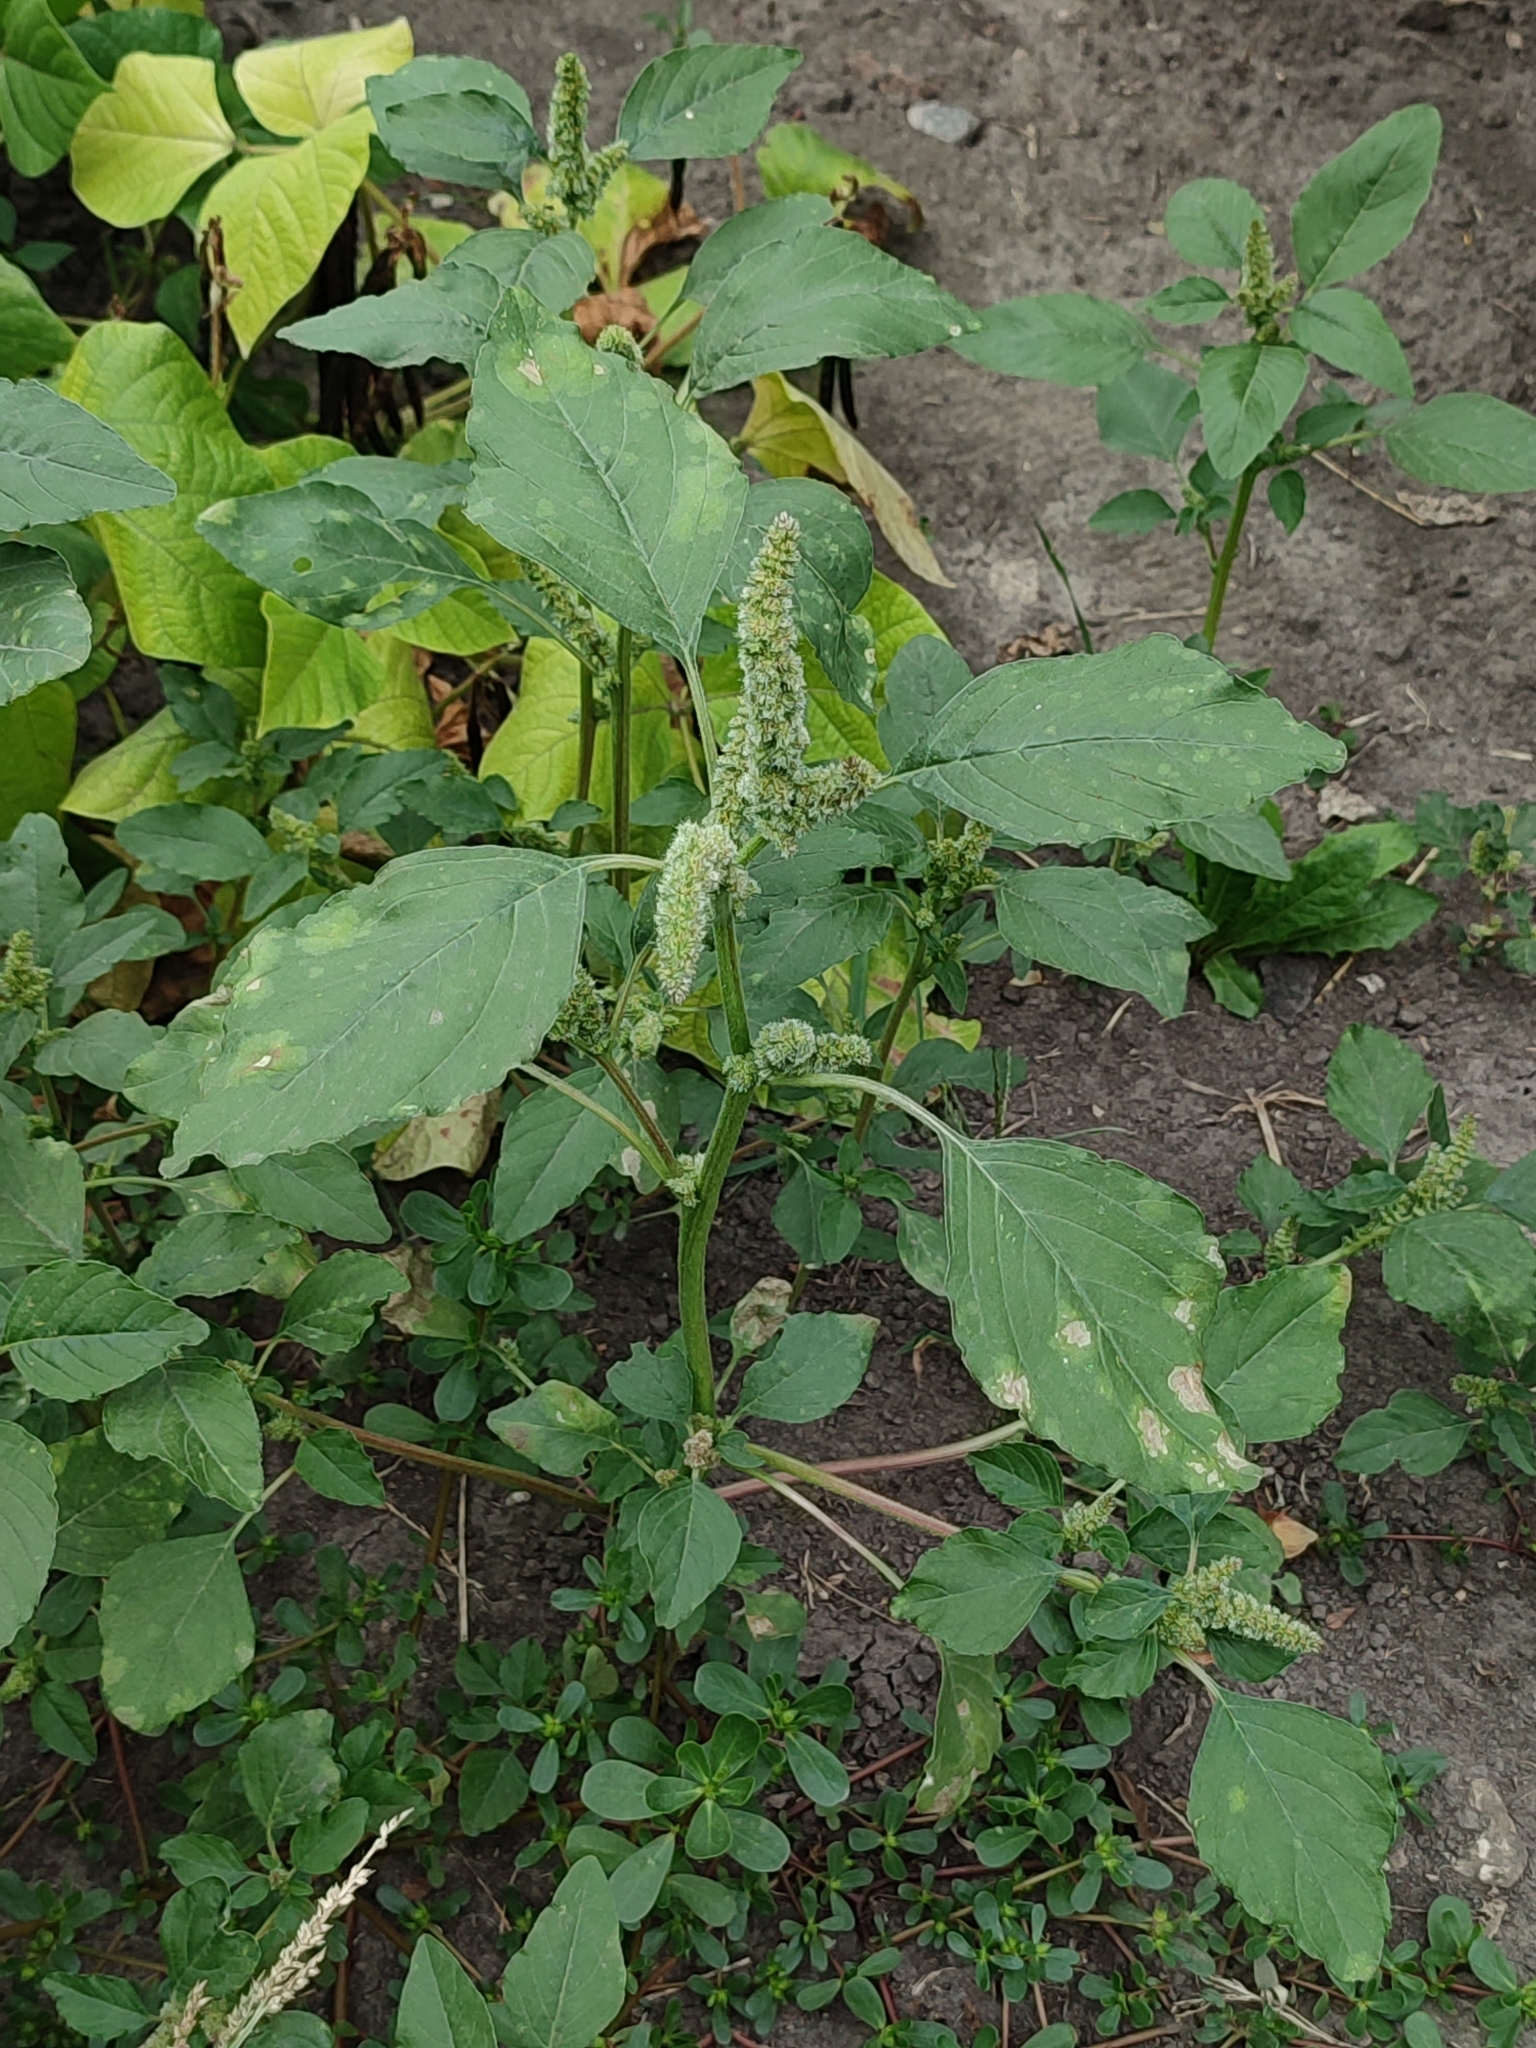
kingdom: Plantae
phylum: Tracheophyta
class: Magnoliopsida
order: Caryophyllales
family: Amaranthaceae
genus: Amaranthus
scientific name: Amaranthus retroflexus
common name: Redroot amaranth
